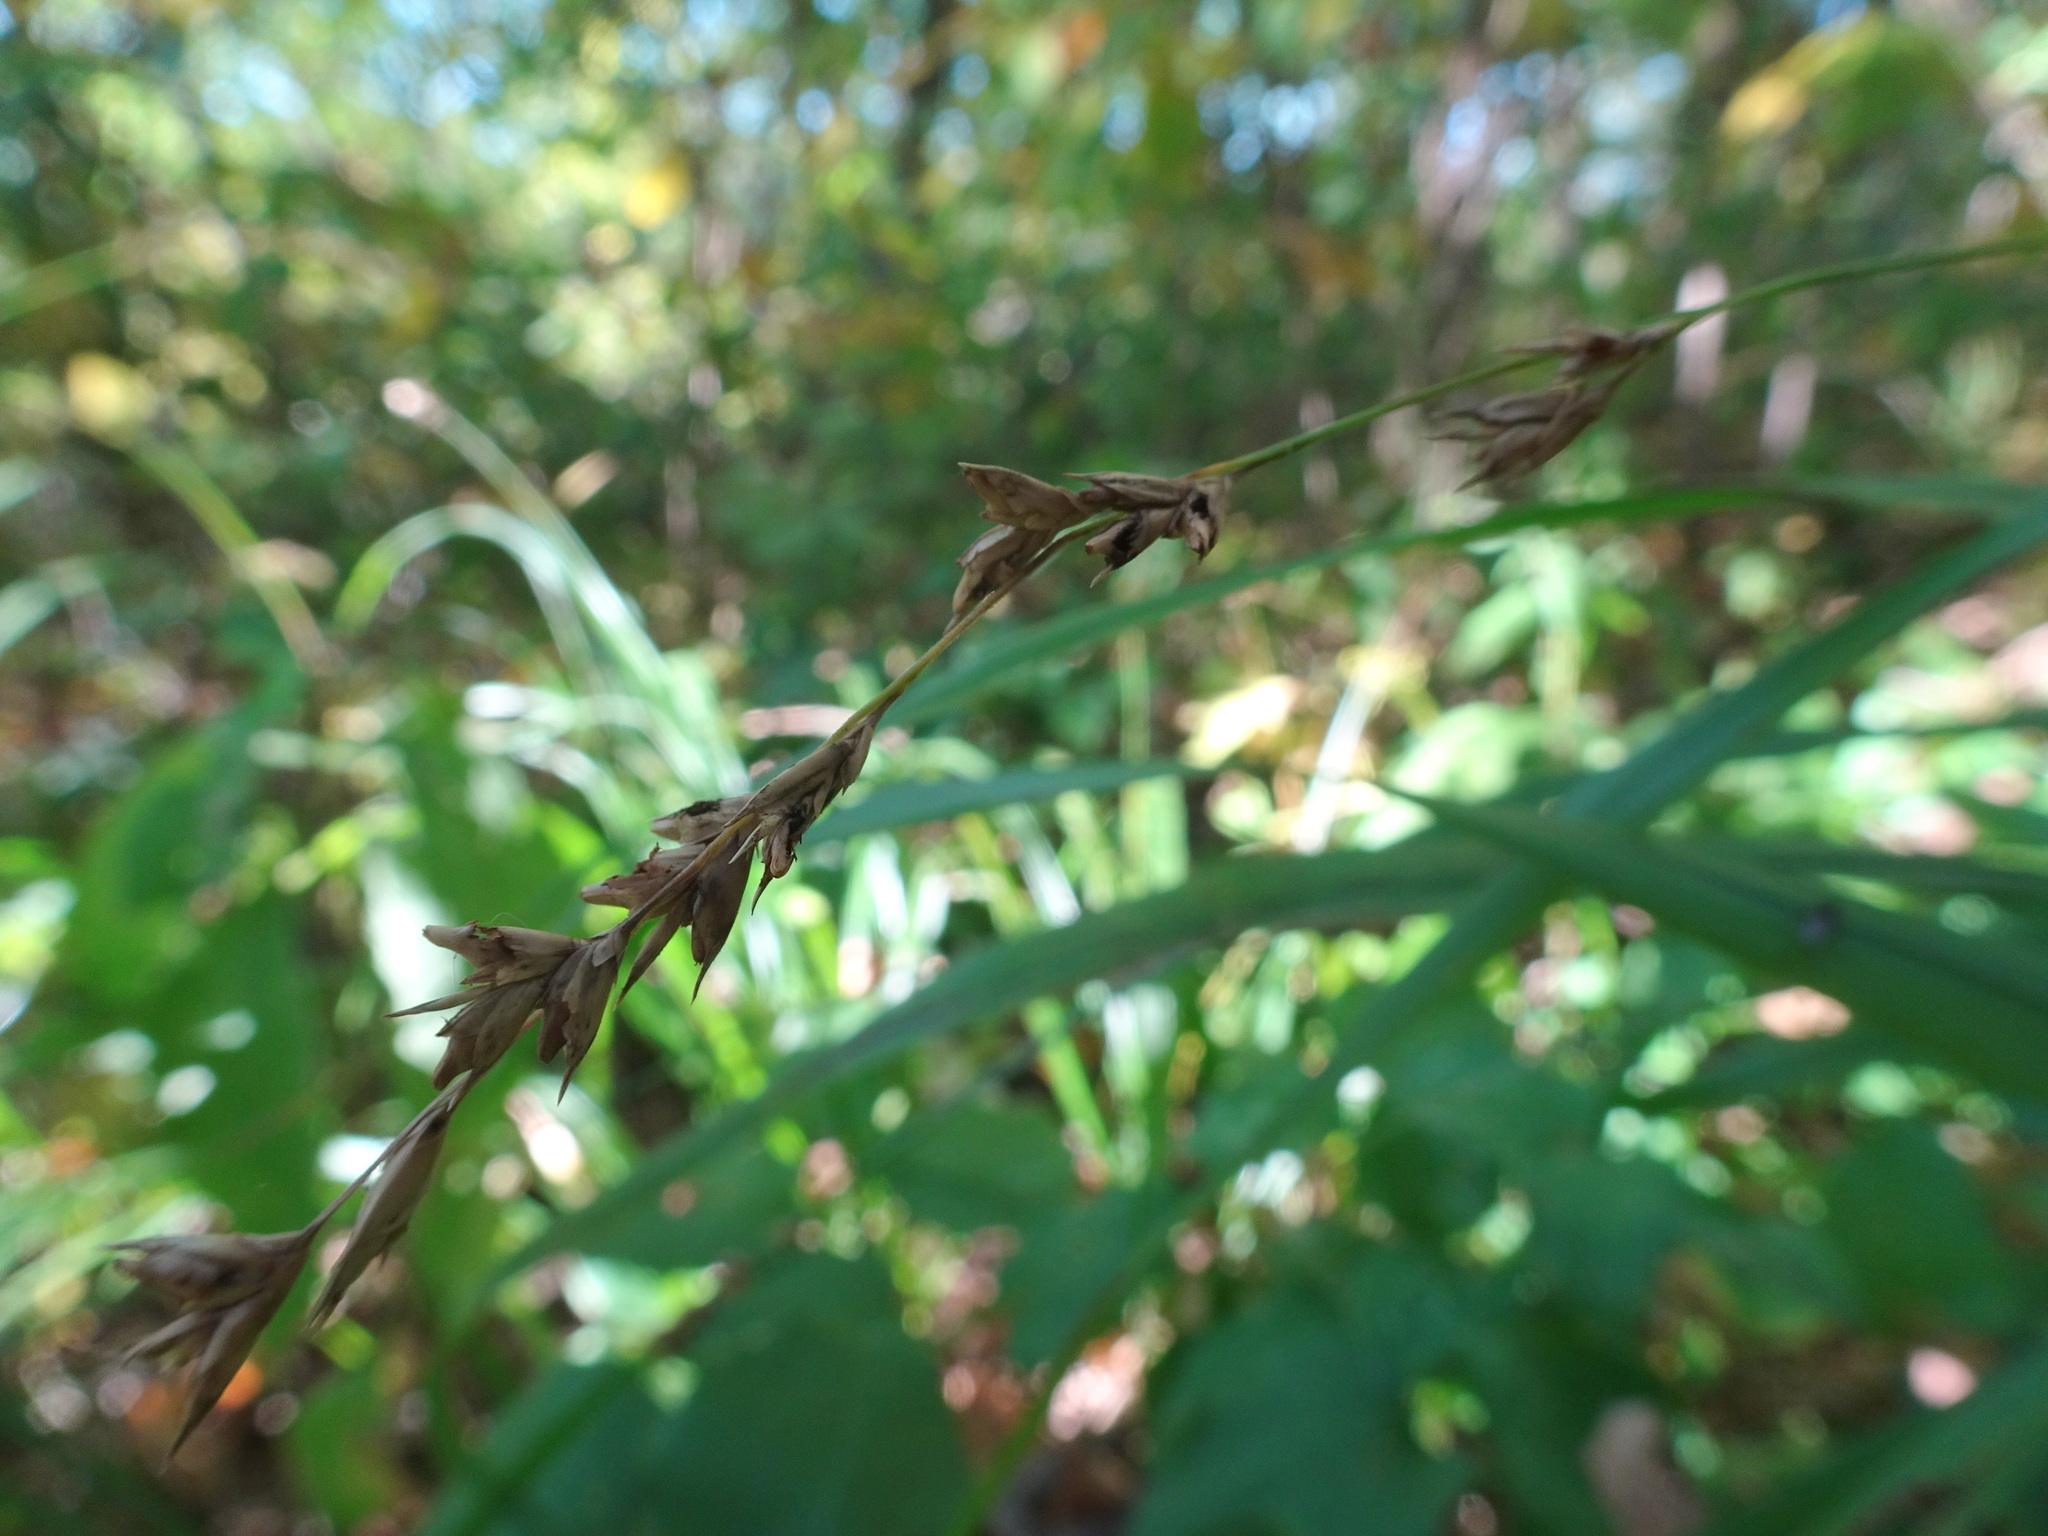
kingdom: Plantae
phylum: Tracheophyta
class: Liliopsida
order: Poales
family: Poaceae
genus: Diarrhena
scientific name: Diarrhena obovata
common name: Beakgrass
